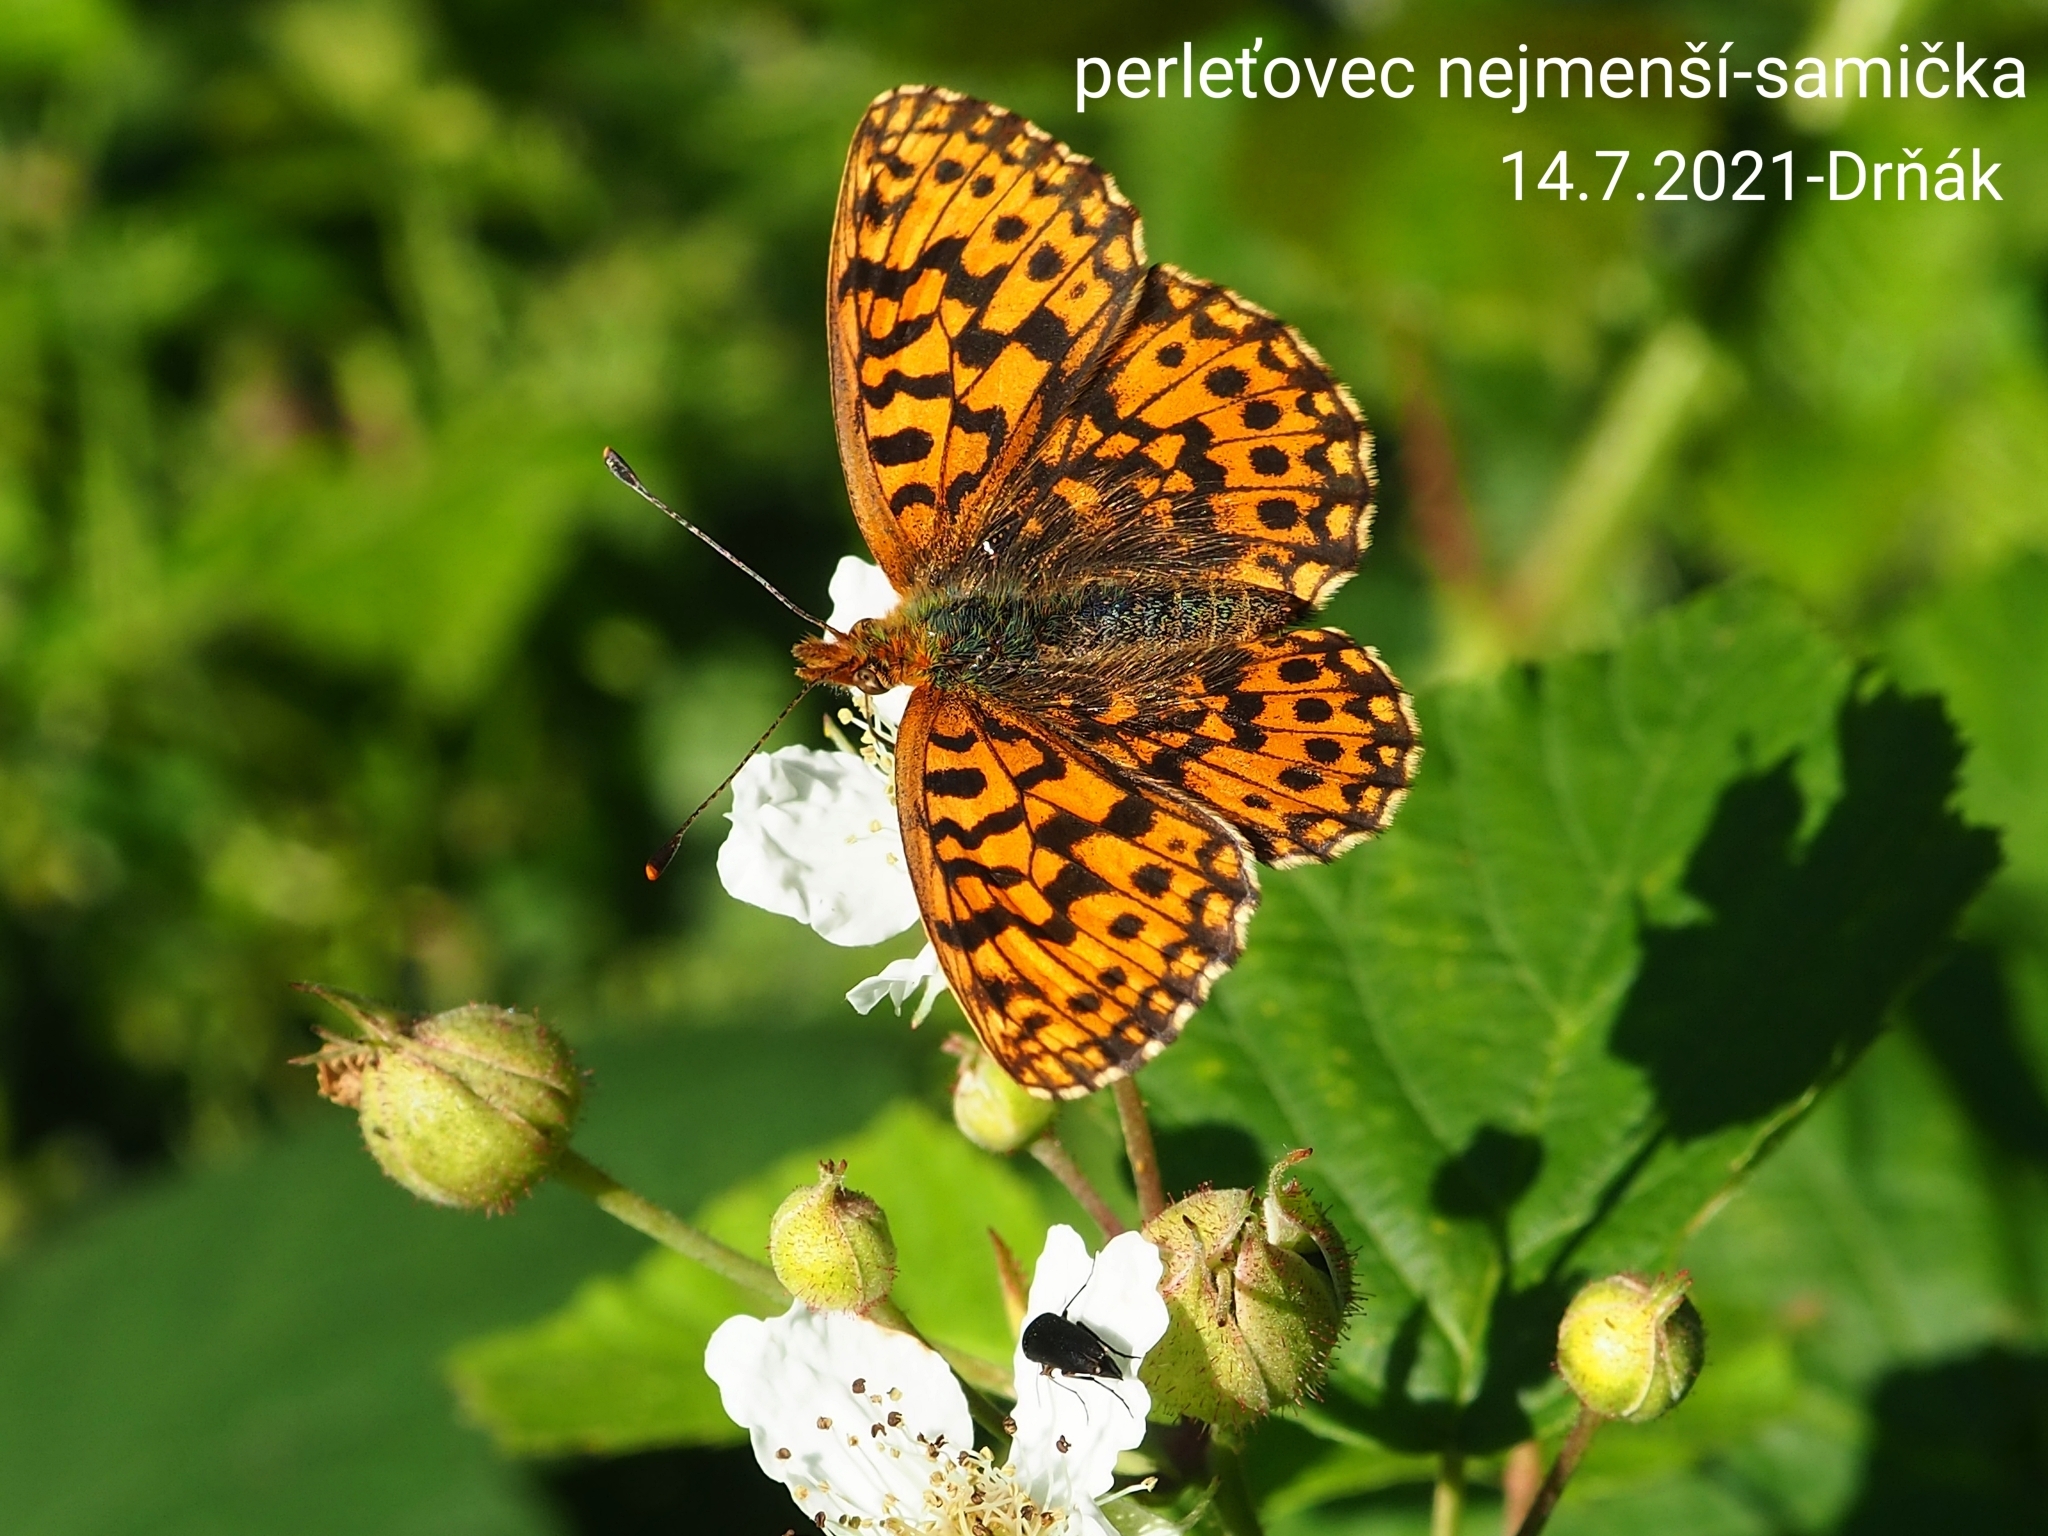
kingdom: Animalia
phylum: Arthropoda
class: Insecta
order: Lepidoptera
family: Nymphalidae
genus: Boloria
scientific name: Boloria dia
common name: Weaver's fritillary
